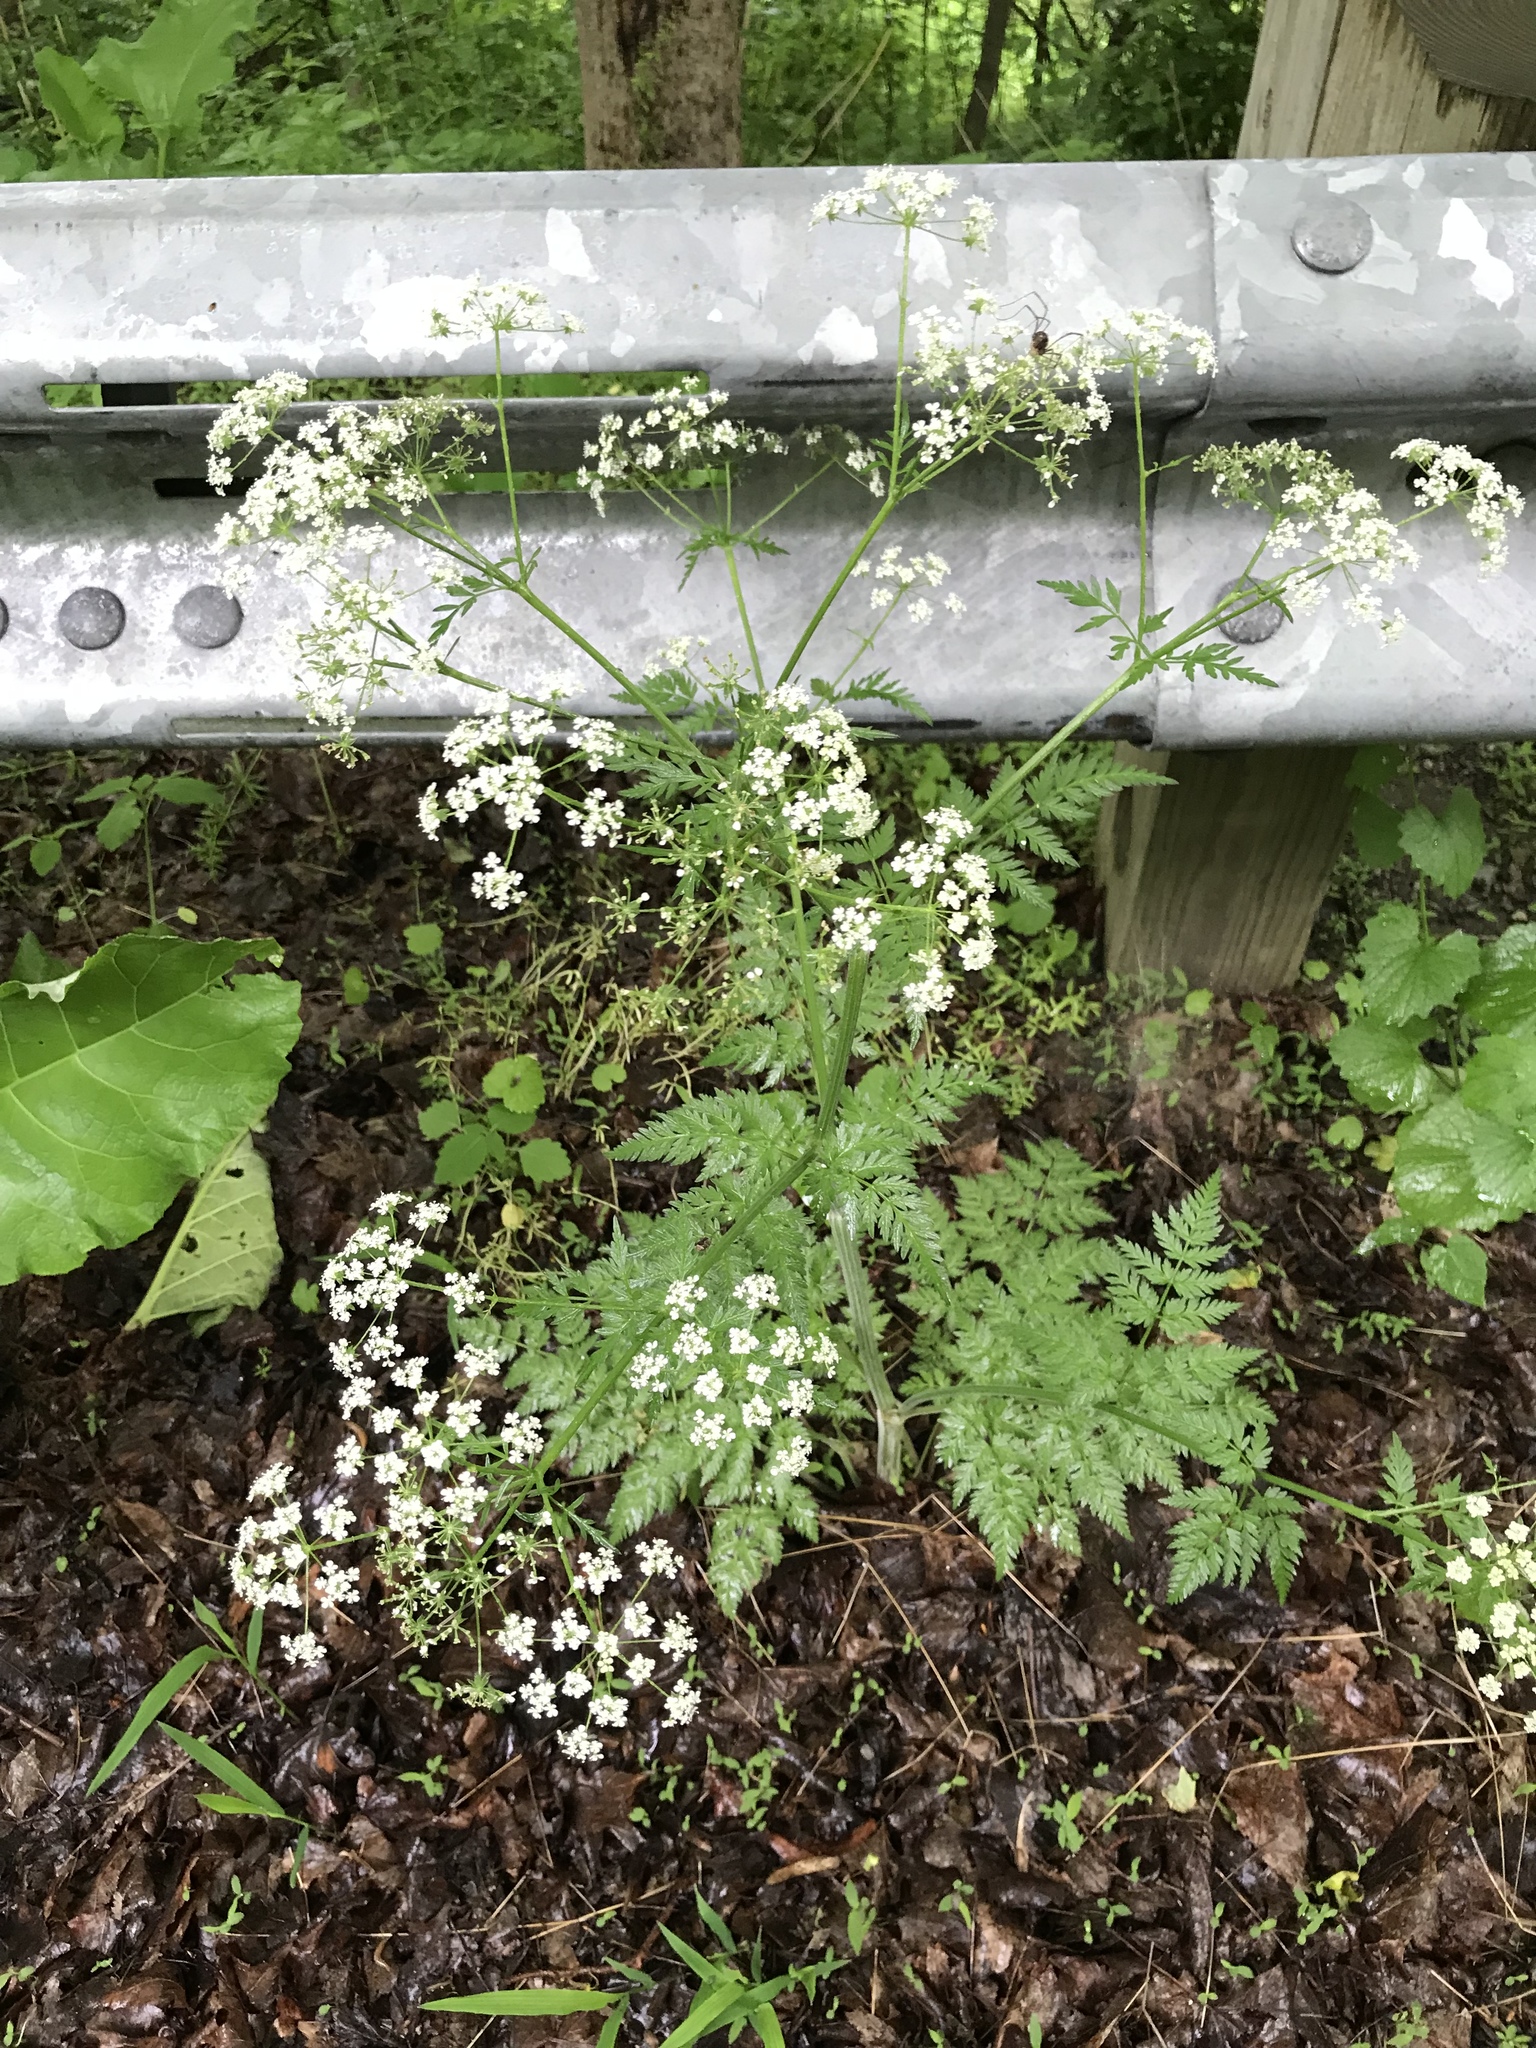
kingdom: Plantae
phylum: Tracheophyta
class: Magnoliopsida
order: Apiales
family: Apiaceae
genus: Anthriscus
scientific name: Anthriscus sylvestris
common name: Cow parsley
